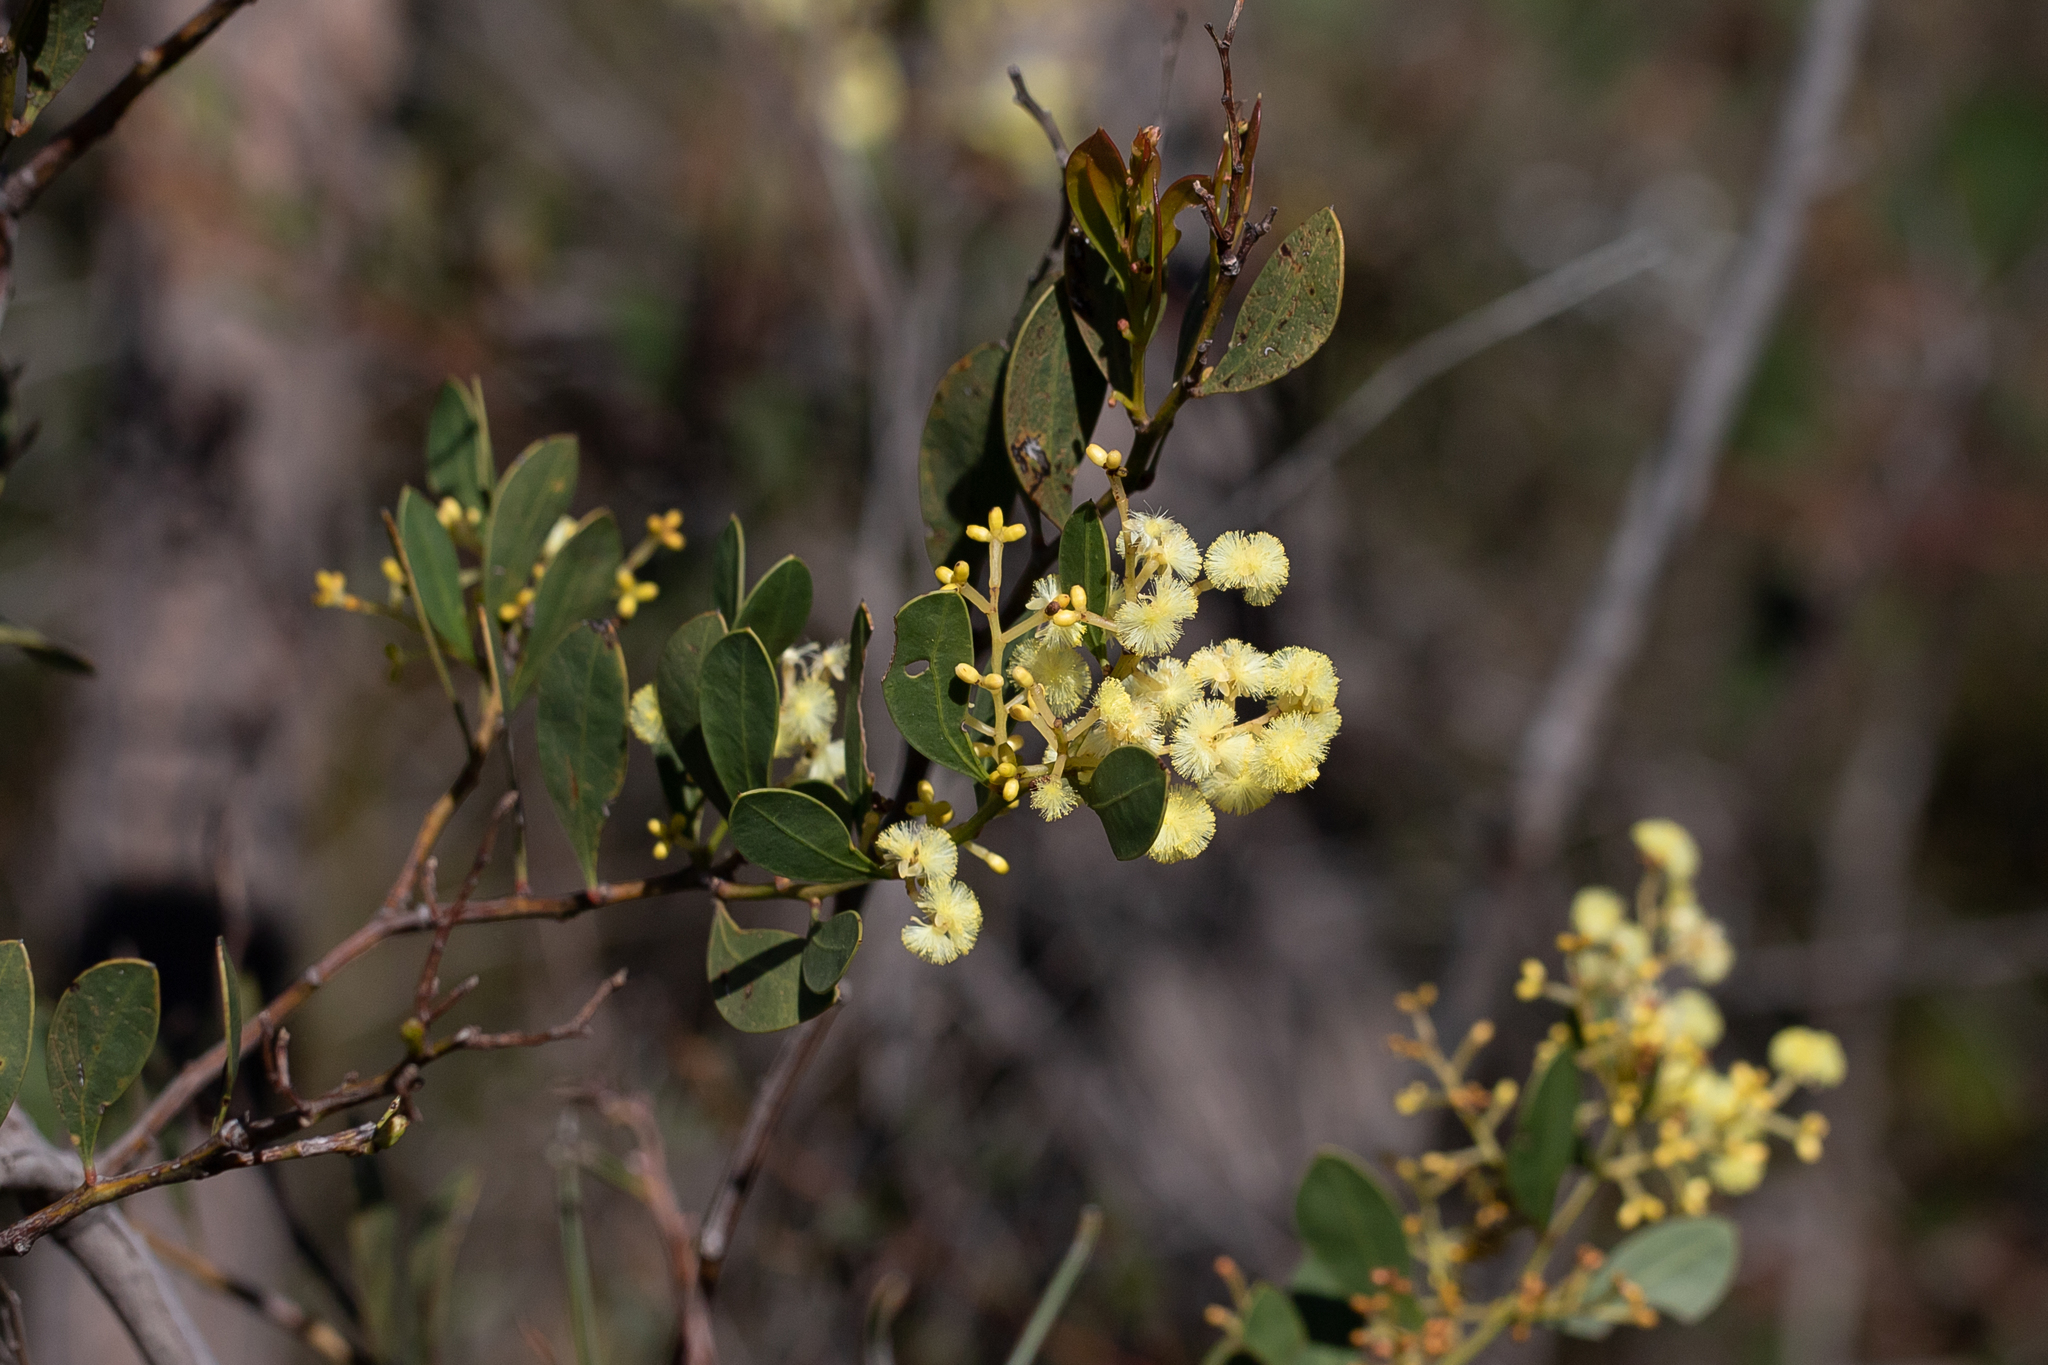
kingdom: Plantae
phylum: Tracheophyta
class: Magnoliopsida
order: Fabales
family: Fabaceae
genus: Acacia
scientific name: Acacia myrtifolia
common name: Myrtle wattle
